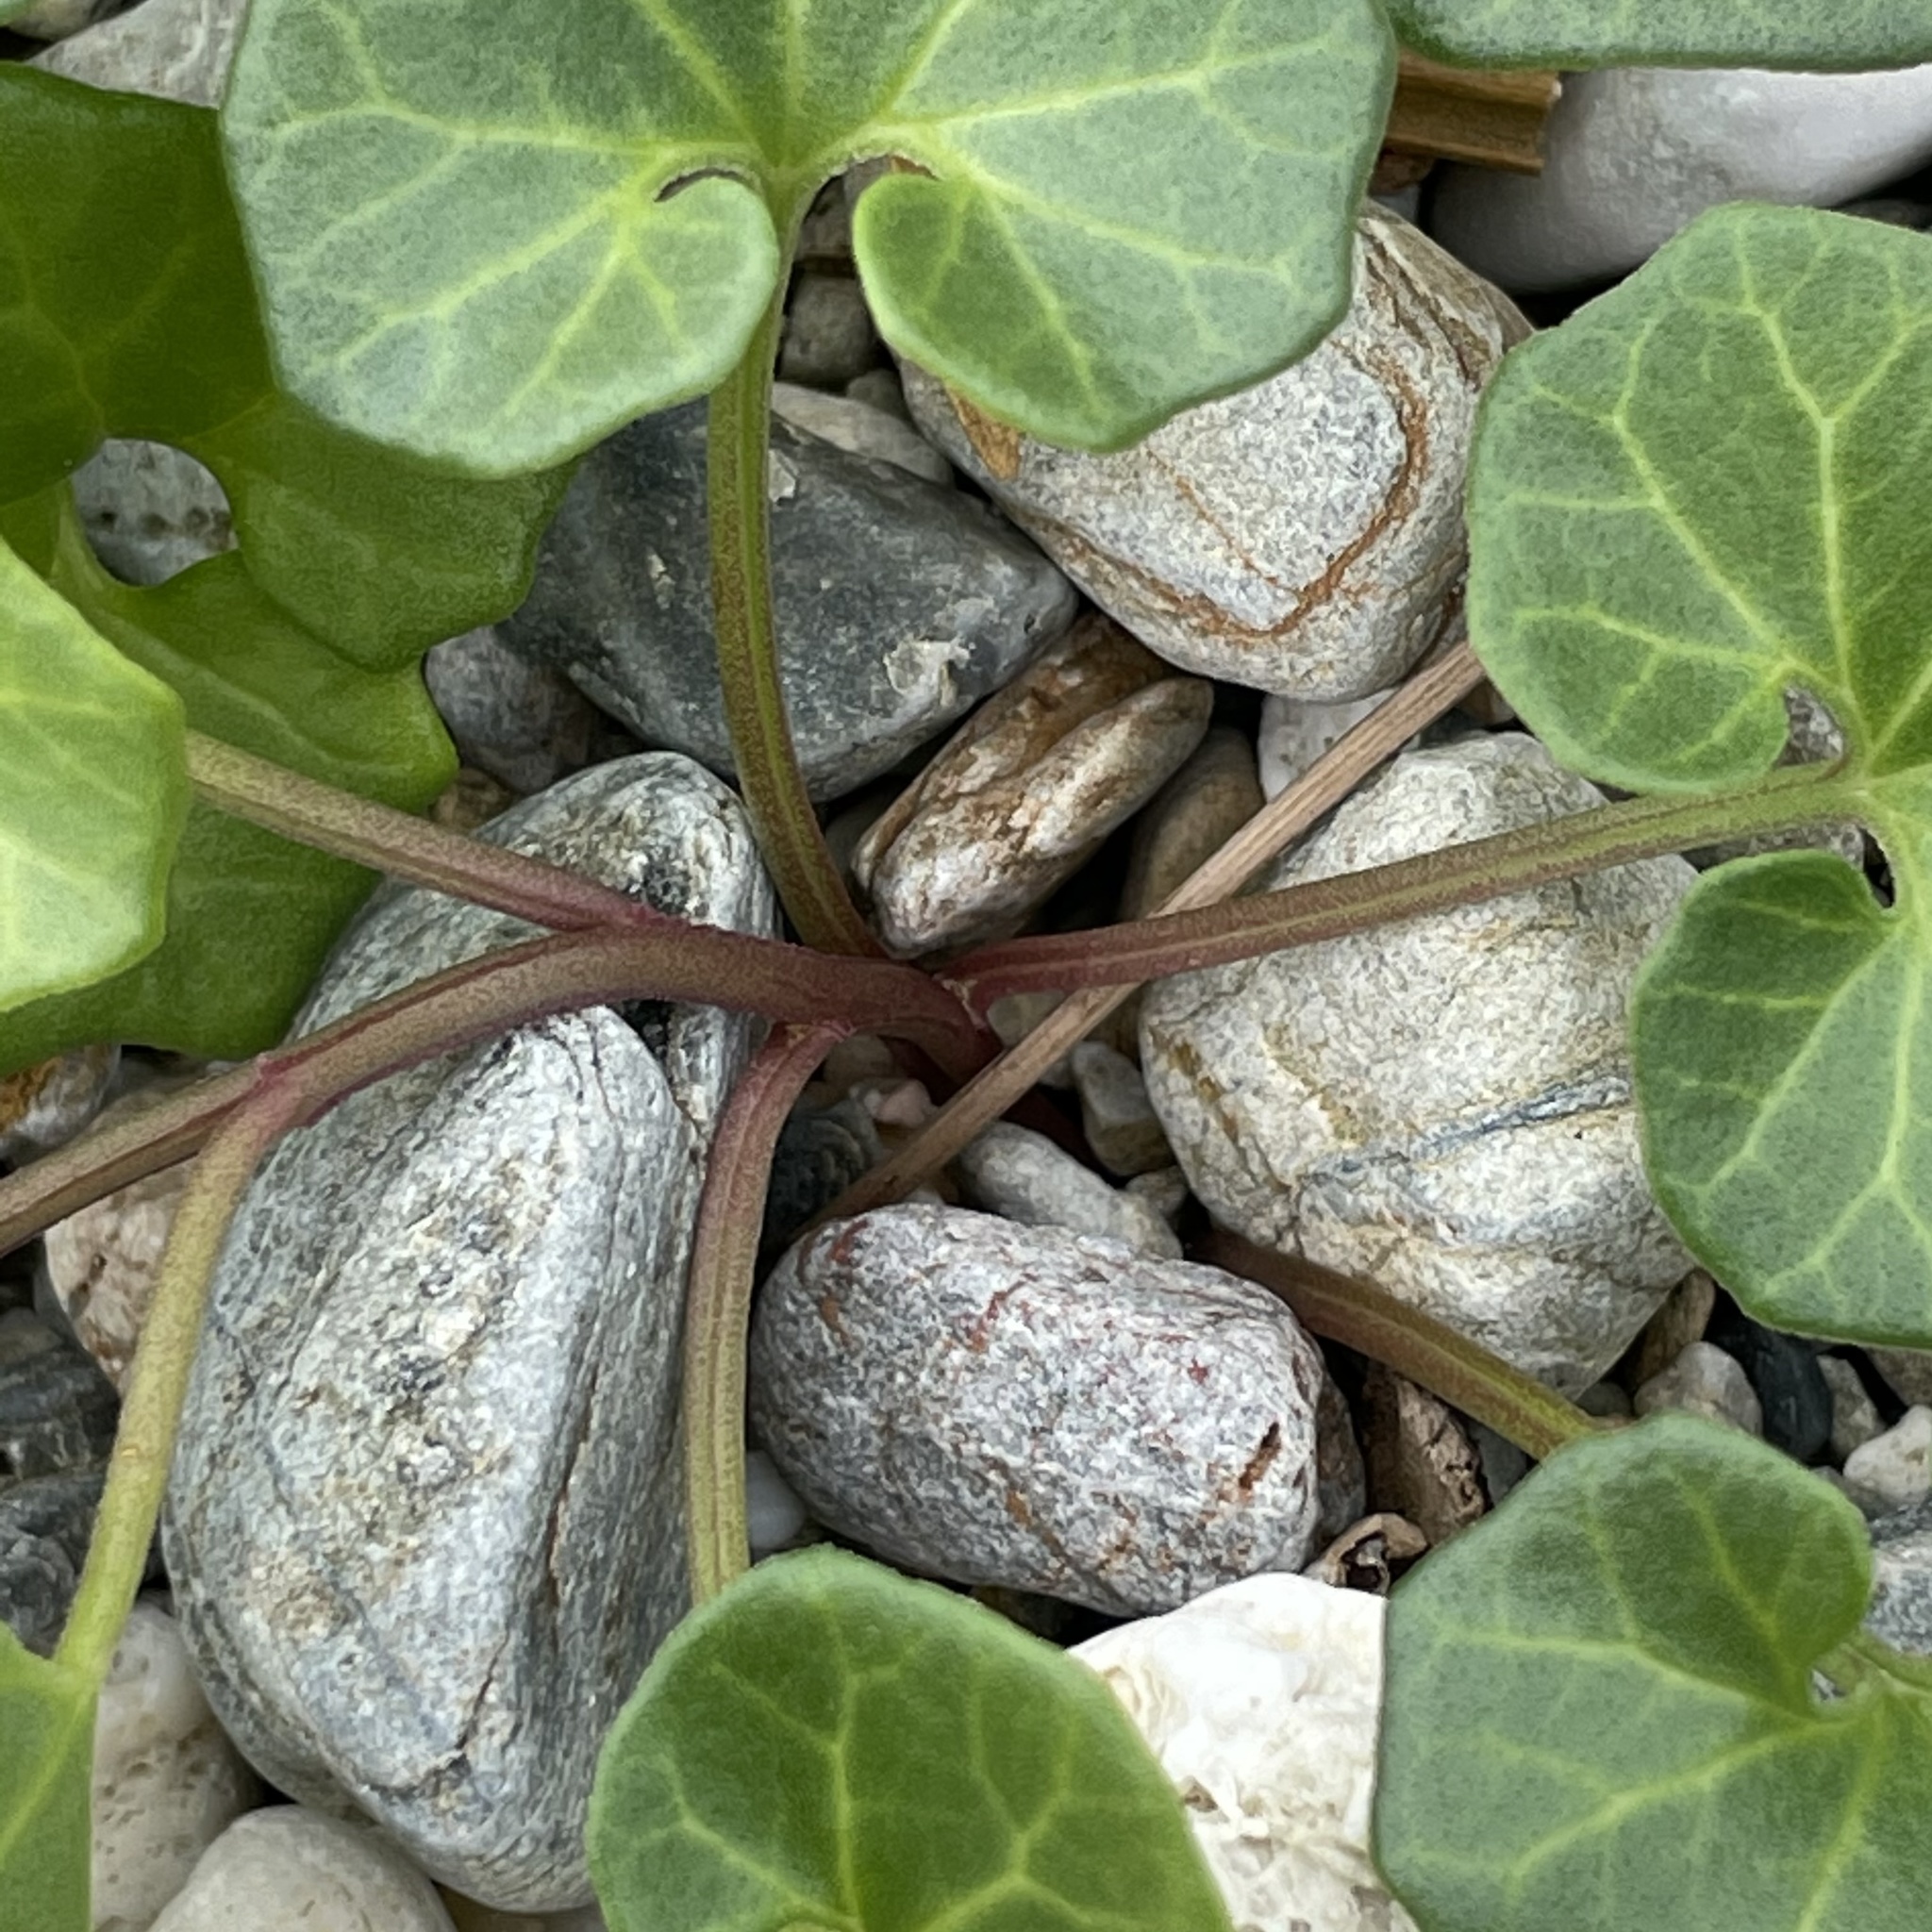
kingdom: Plantae
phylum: Tracheophyta
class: Magnoliopsida
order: Solanales
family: Convolvulaceae
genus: Calystegia
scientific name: Calystegia soldanella
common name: Sea bindweed
